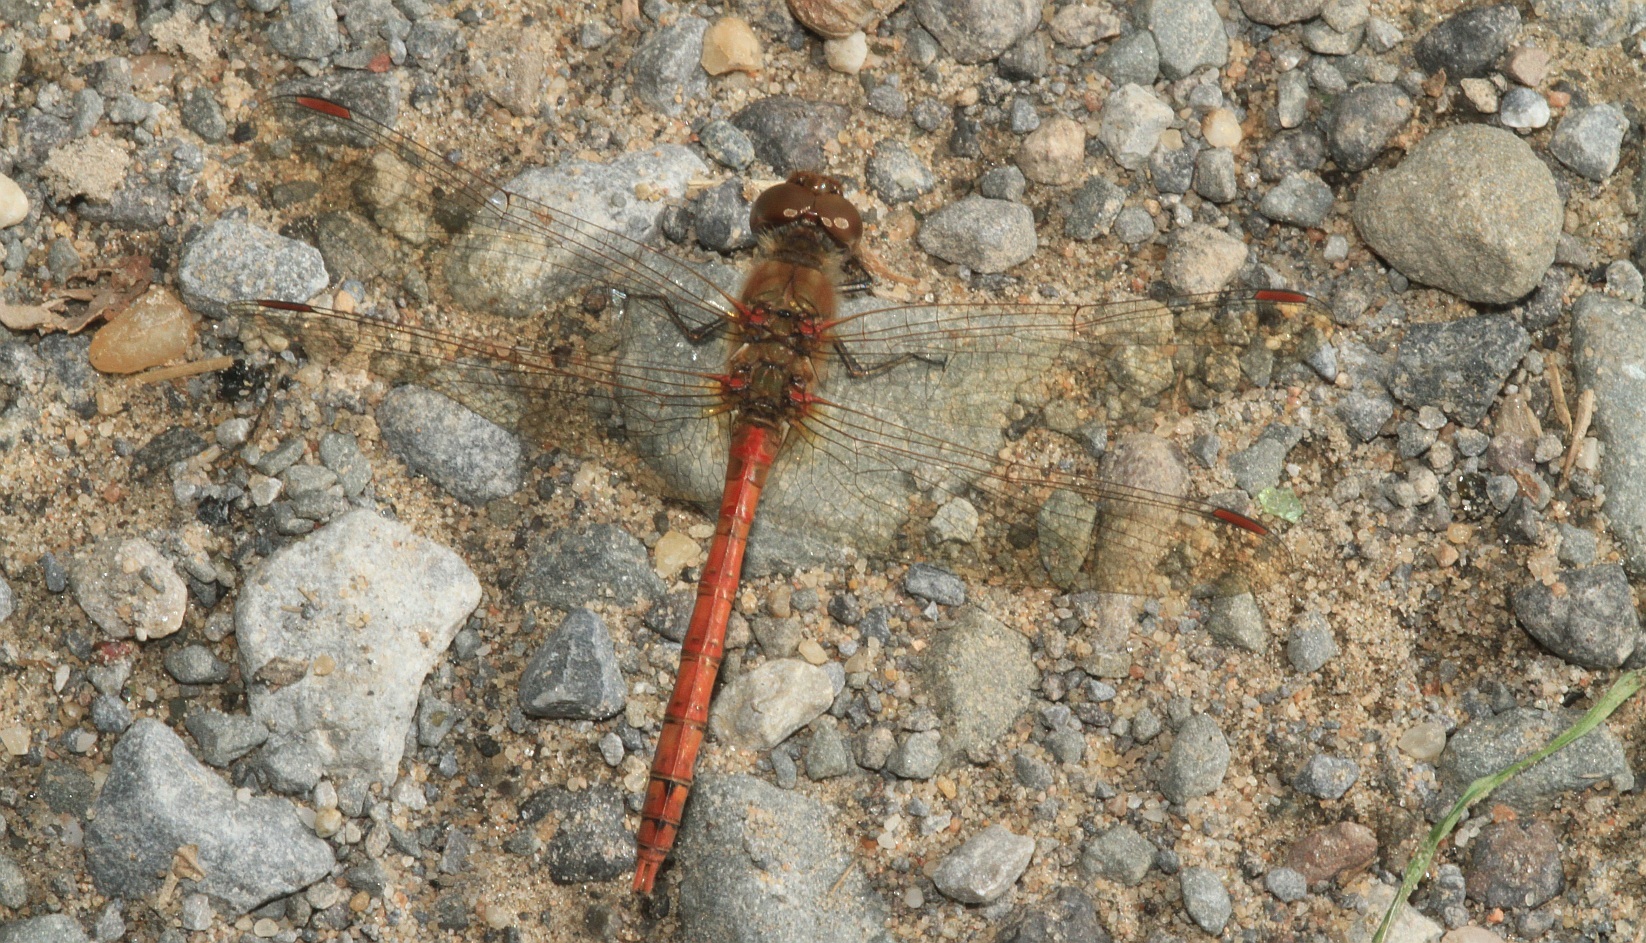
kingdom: Animalia
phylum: Arthropoda
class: Insecta
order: Odonata
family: Libellulidae
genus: Sympetrum
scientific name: Sympetrum striolatum
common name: Common darter
